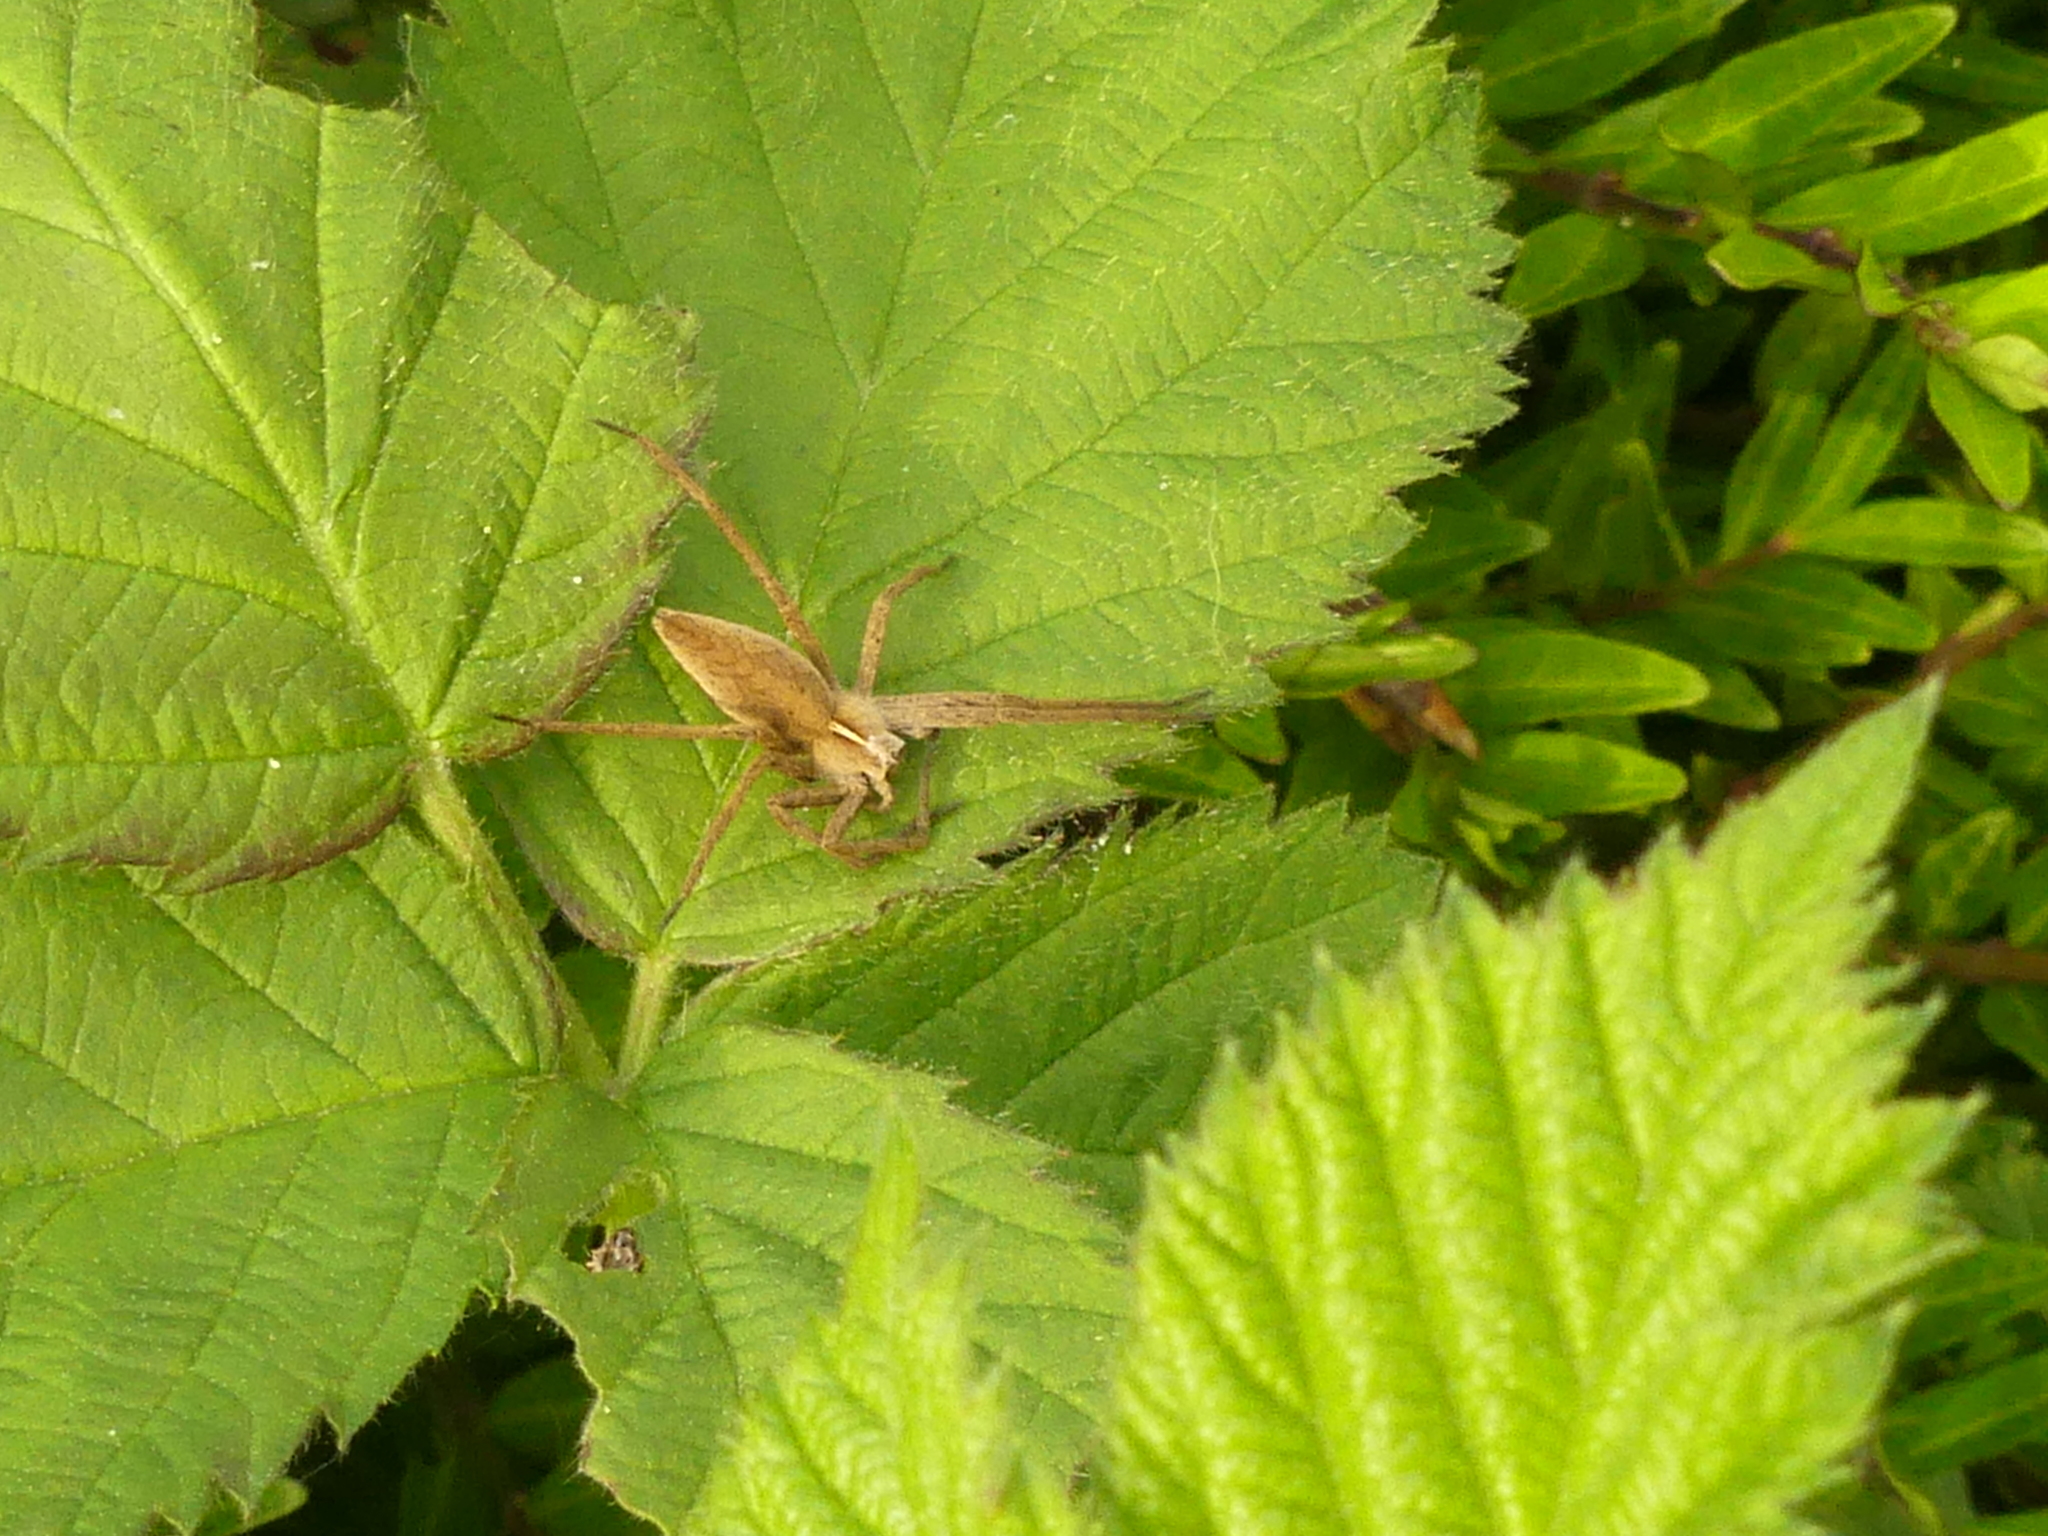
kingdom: Animalia
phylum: Arthropoda
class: Arachnida
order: Araneae
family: Pisauridae
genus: Pisaura
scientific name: Pisaura mirabilis
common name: Tent spider
